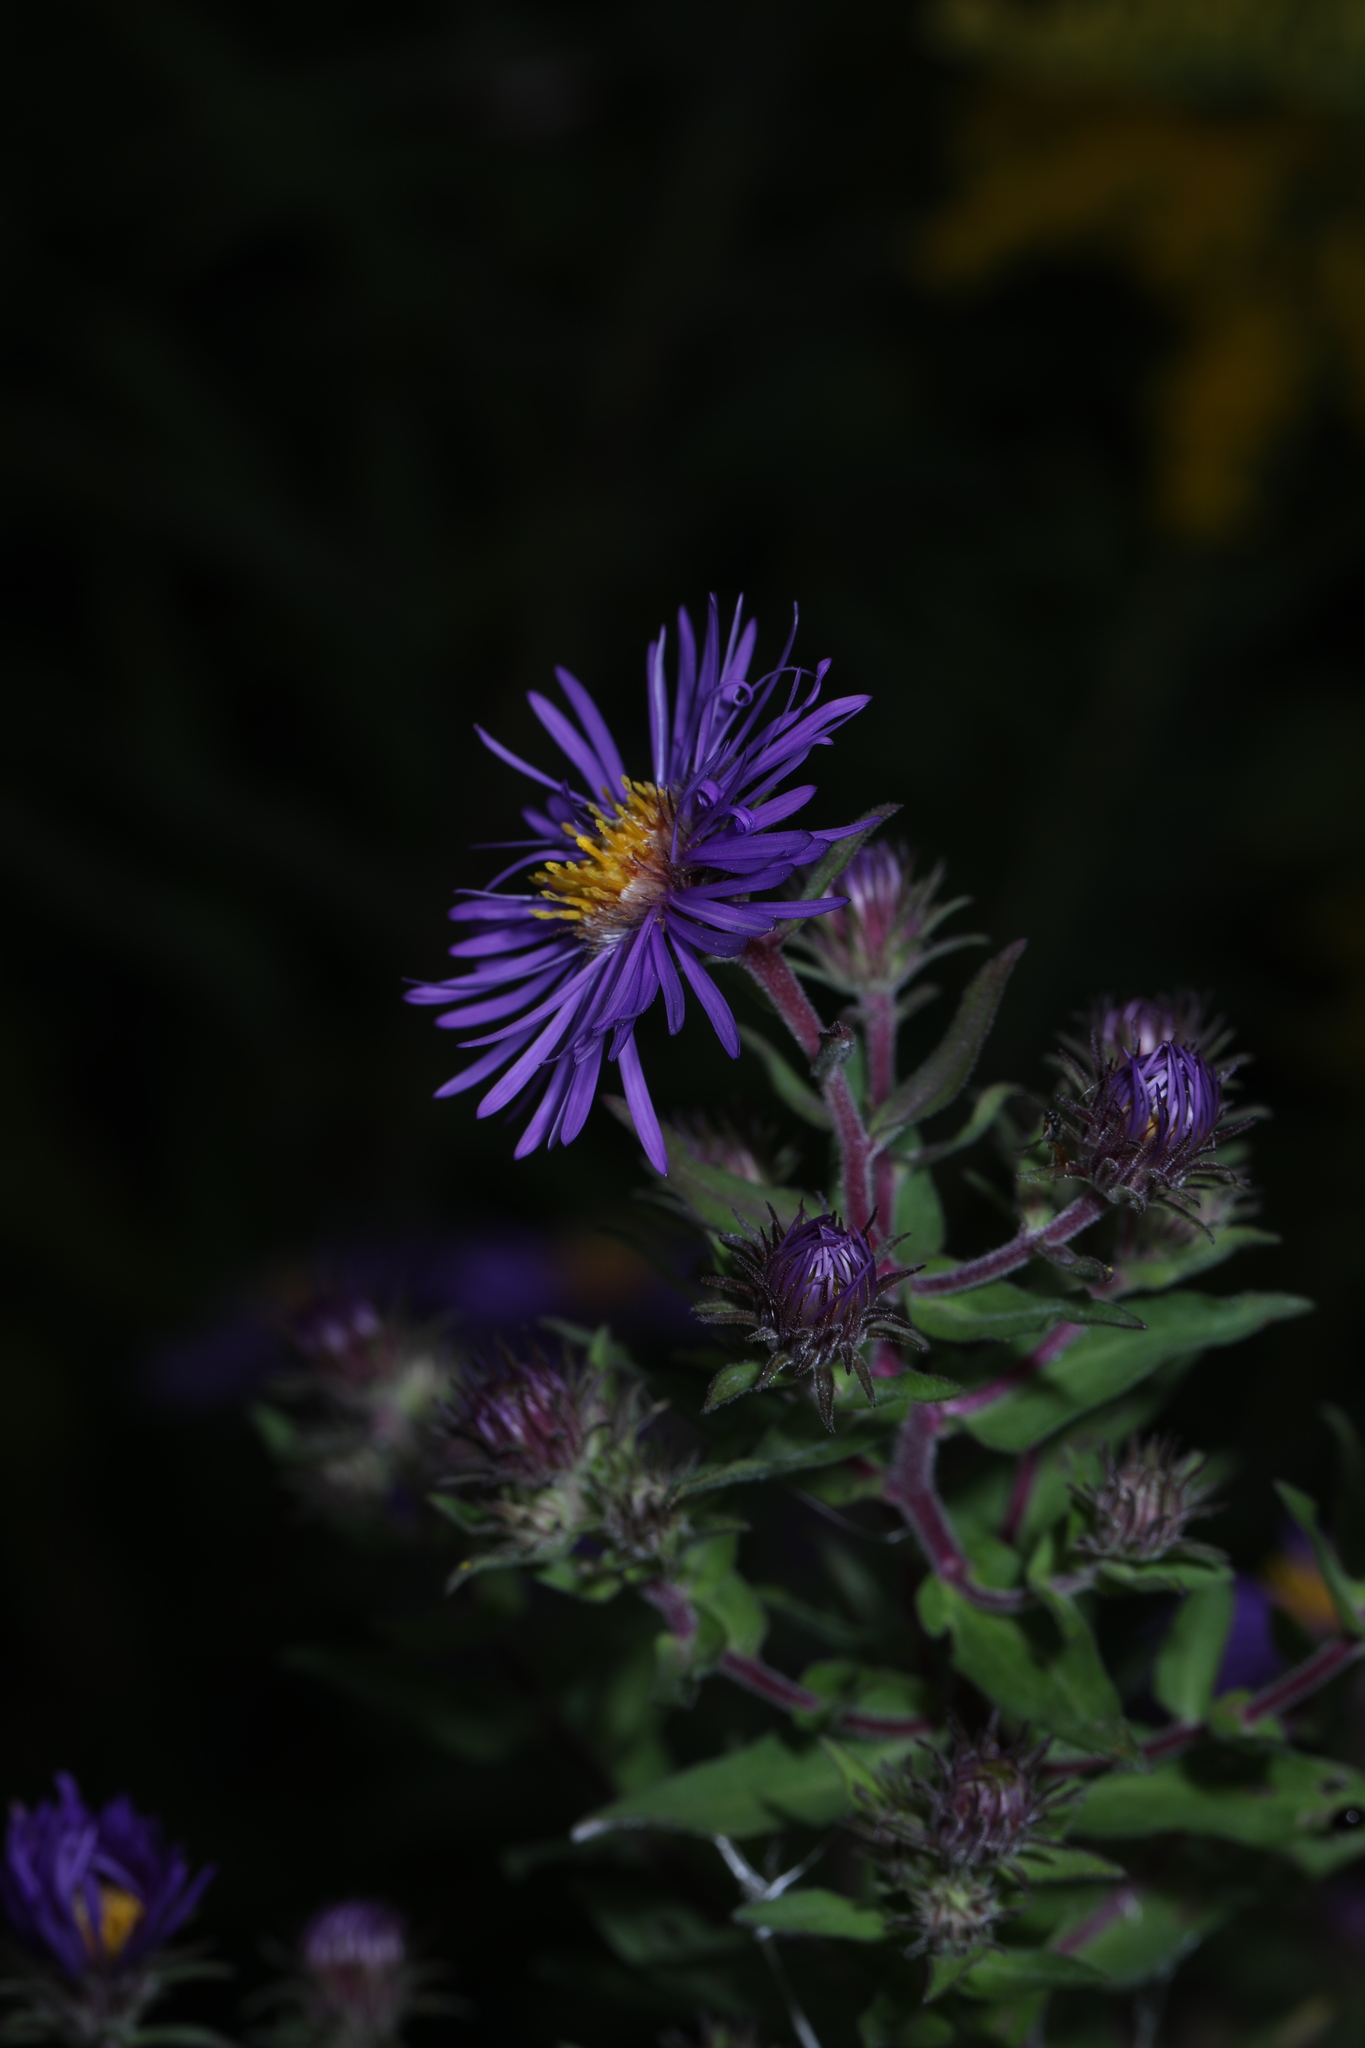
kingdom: Plantae
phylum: Tracheophyta
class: Magnoliopsida
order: Asterales
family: Asteraceae
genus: Symphyotrichum
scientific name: Symphyotrichum novae-angliae
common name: Michaelmas daisy
